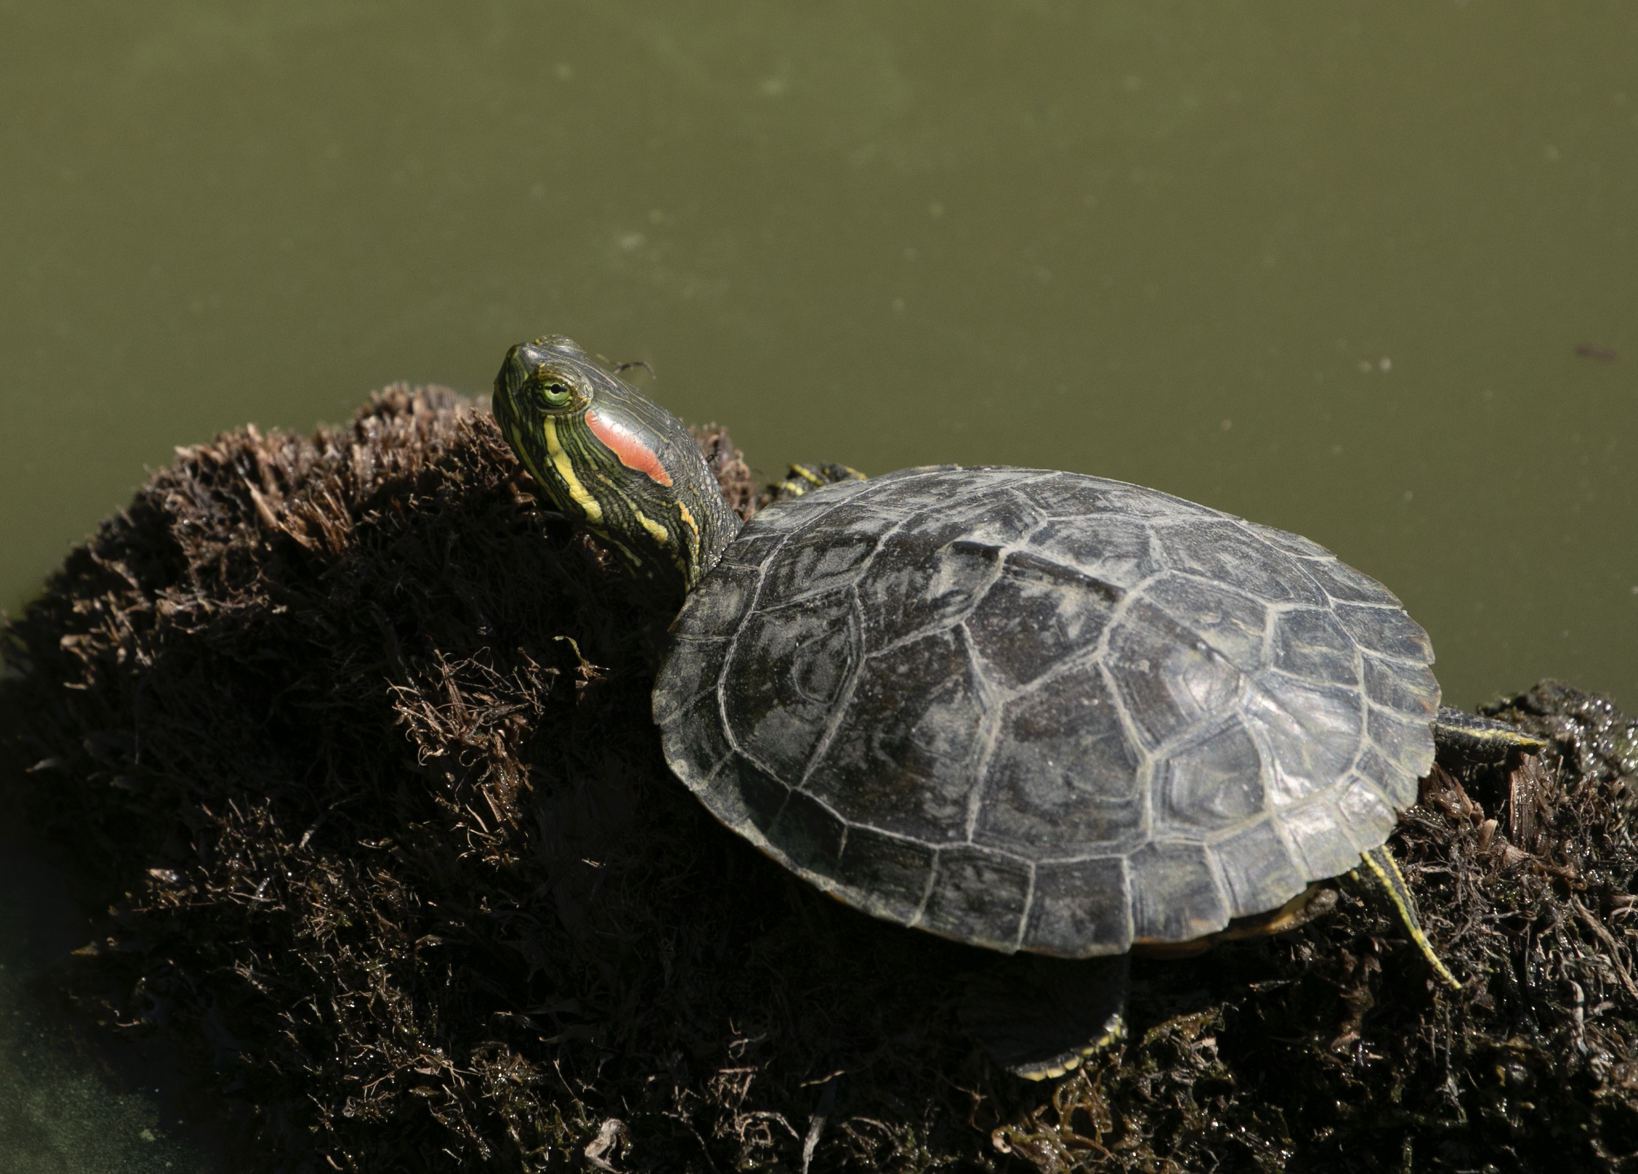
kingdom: Animalia
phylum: Chordata
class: Testudines
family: Emydidae
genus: Trachemys
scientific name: Trachemys scripta
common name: Slider
